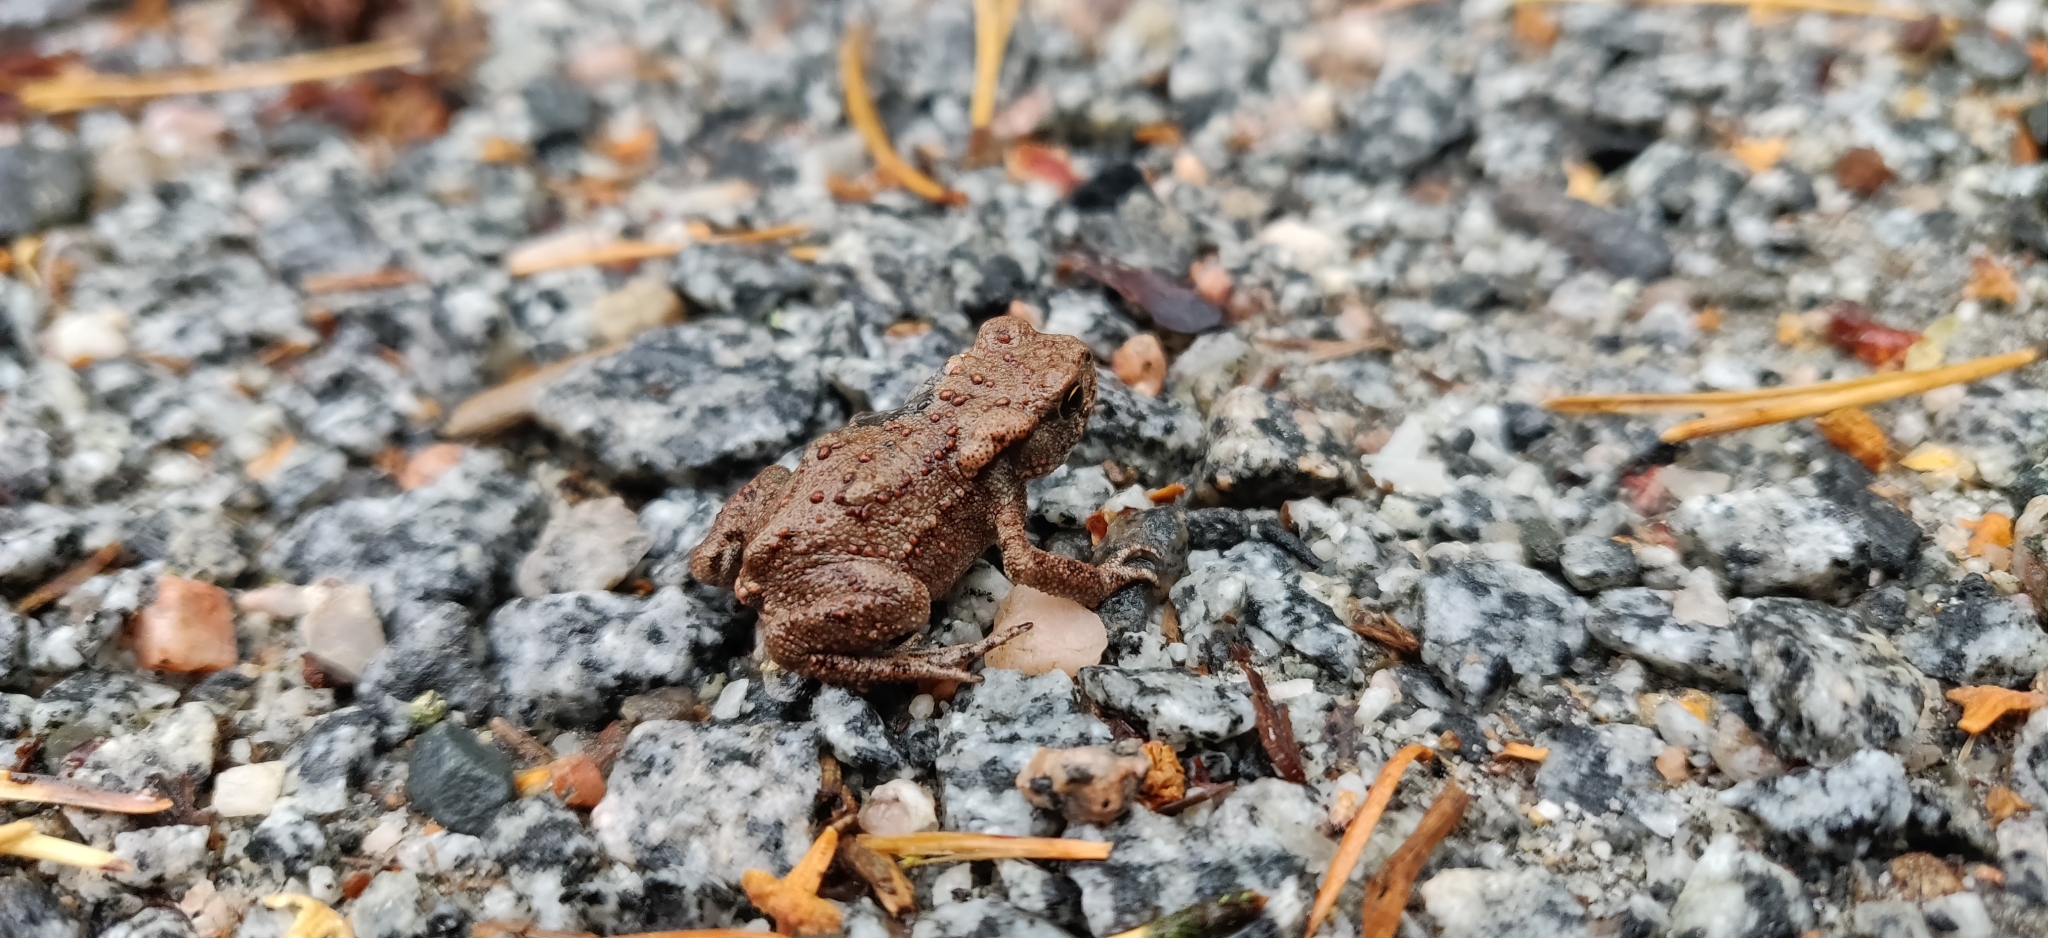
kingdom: Animalia
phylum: Chordata
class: Amphibia
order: Anura
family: Bufonidae
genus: Bufo
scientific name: Bufo bufo
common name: Common toad
